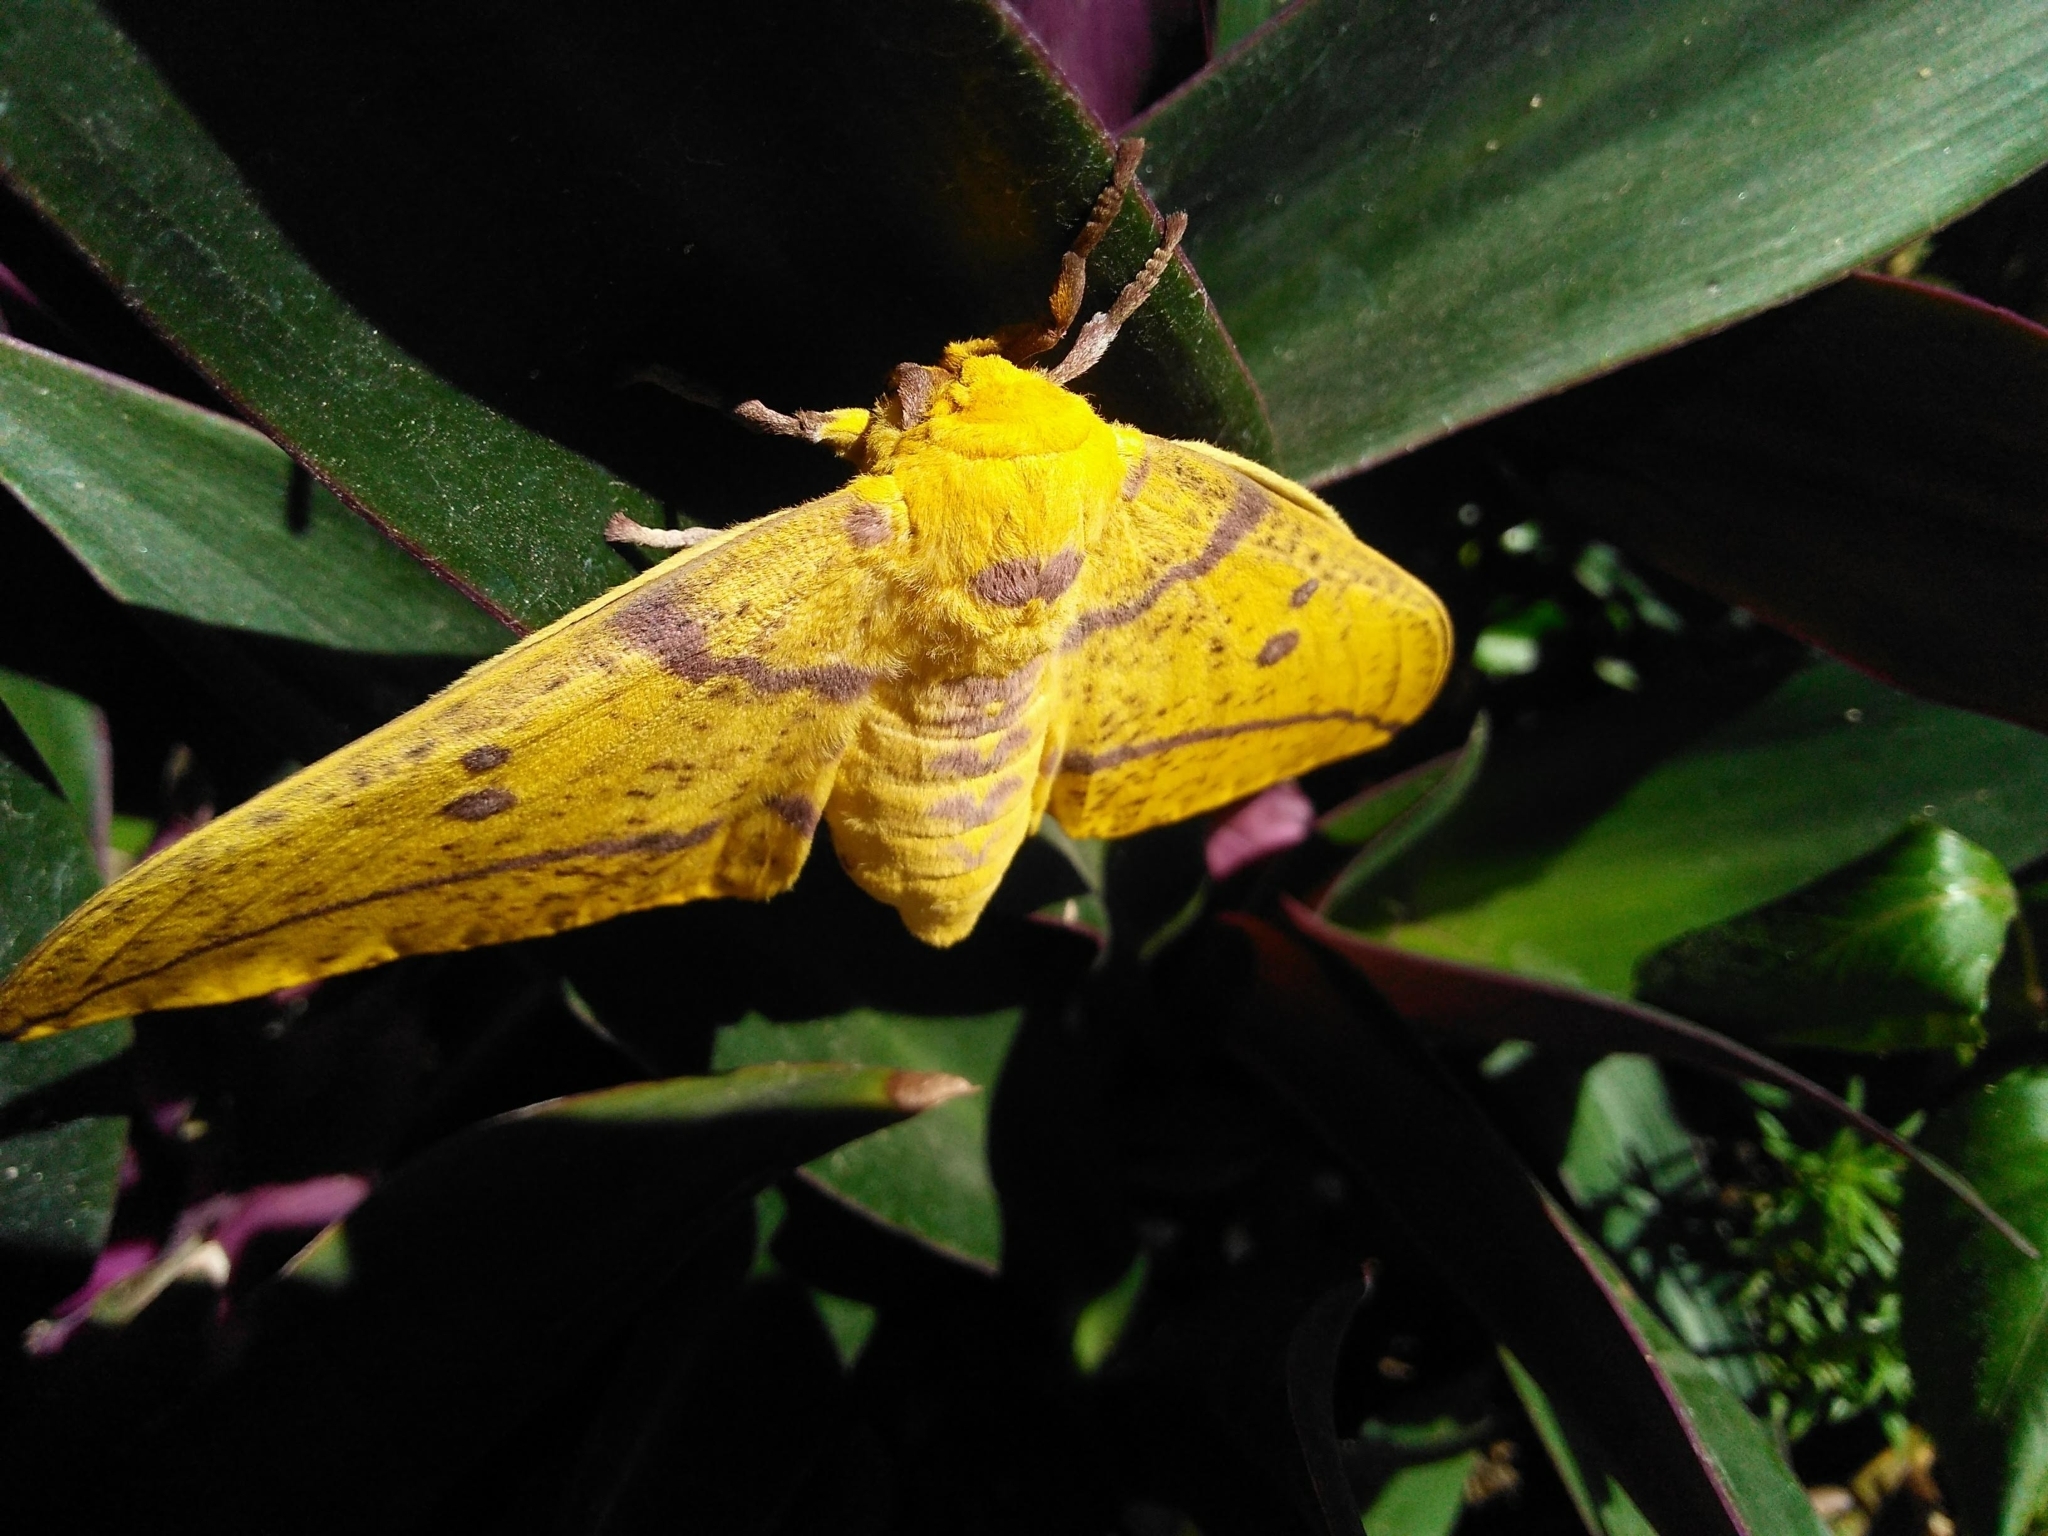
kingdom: Animalia
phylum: Arthropoda
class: Insecta
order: Lepidoptera
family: Saturniidae
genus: Eacles
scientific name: Eacles imperialis
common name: Imperial moth
